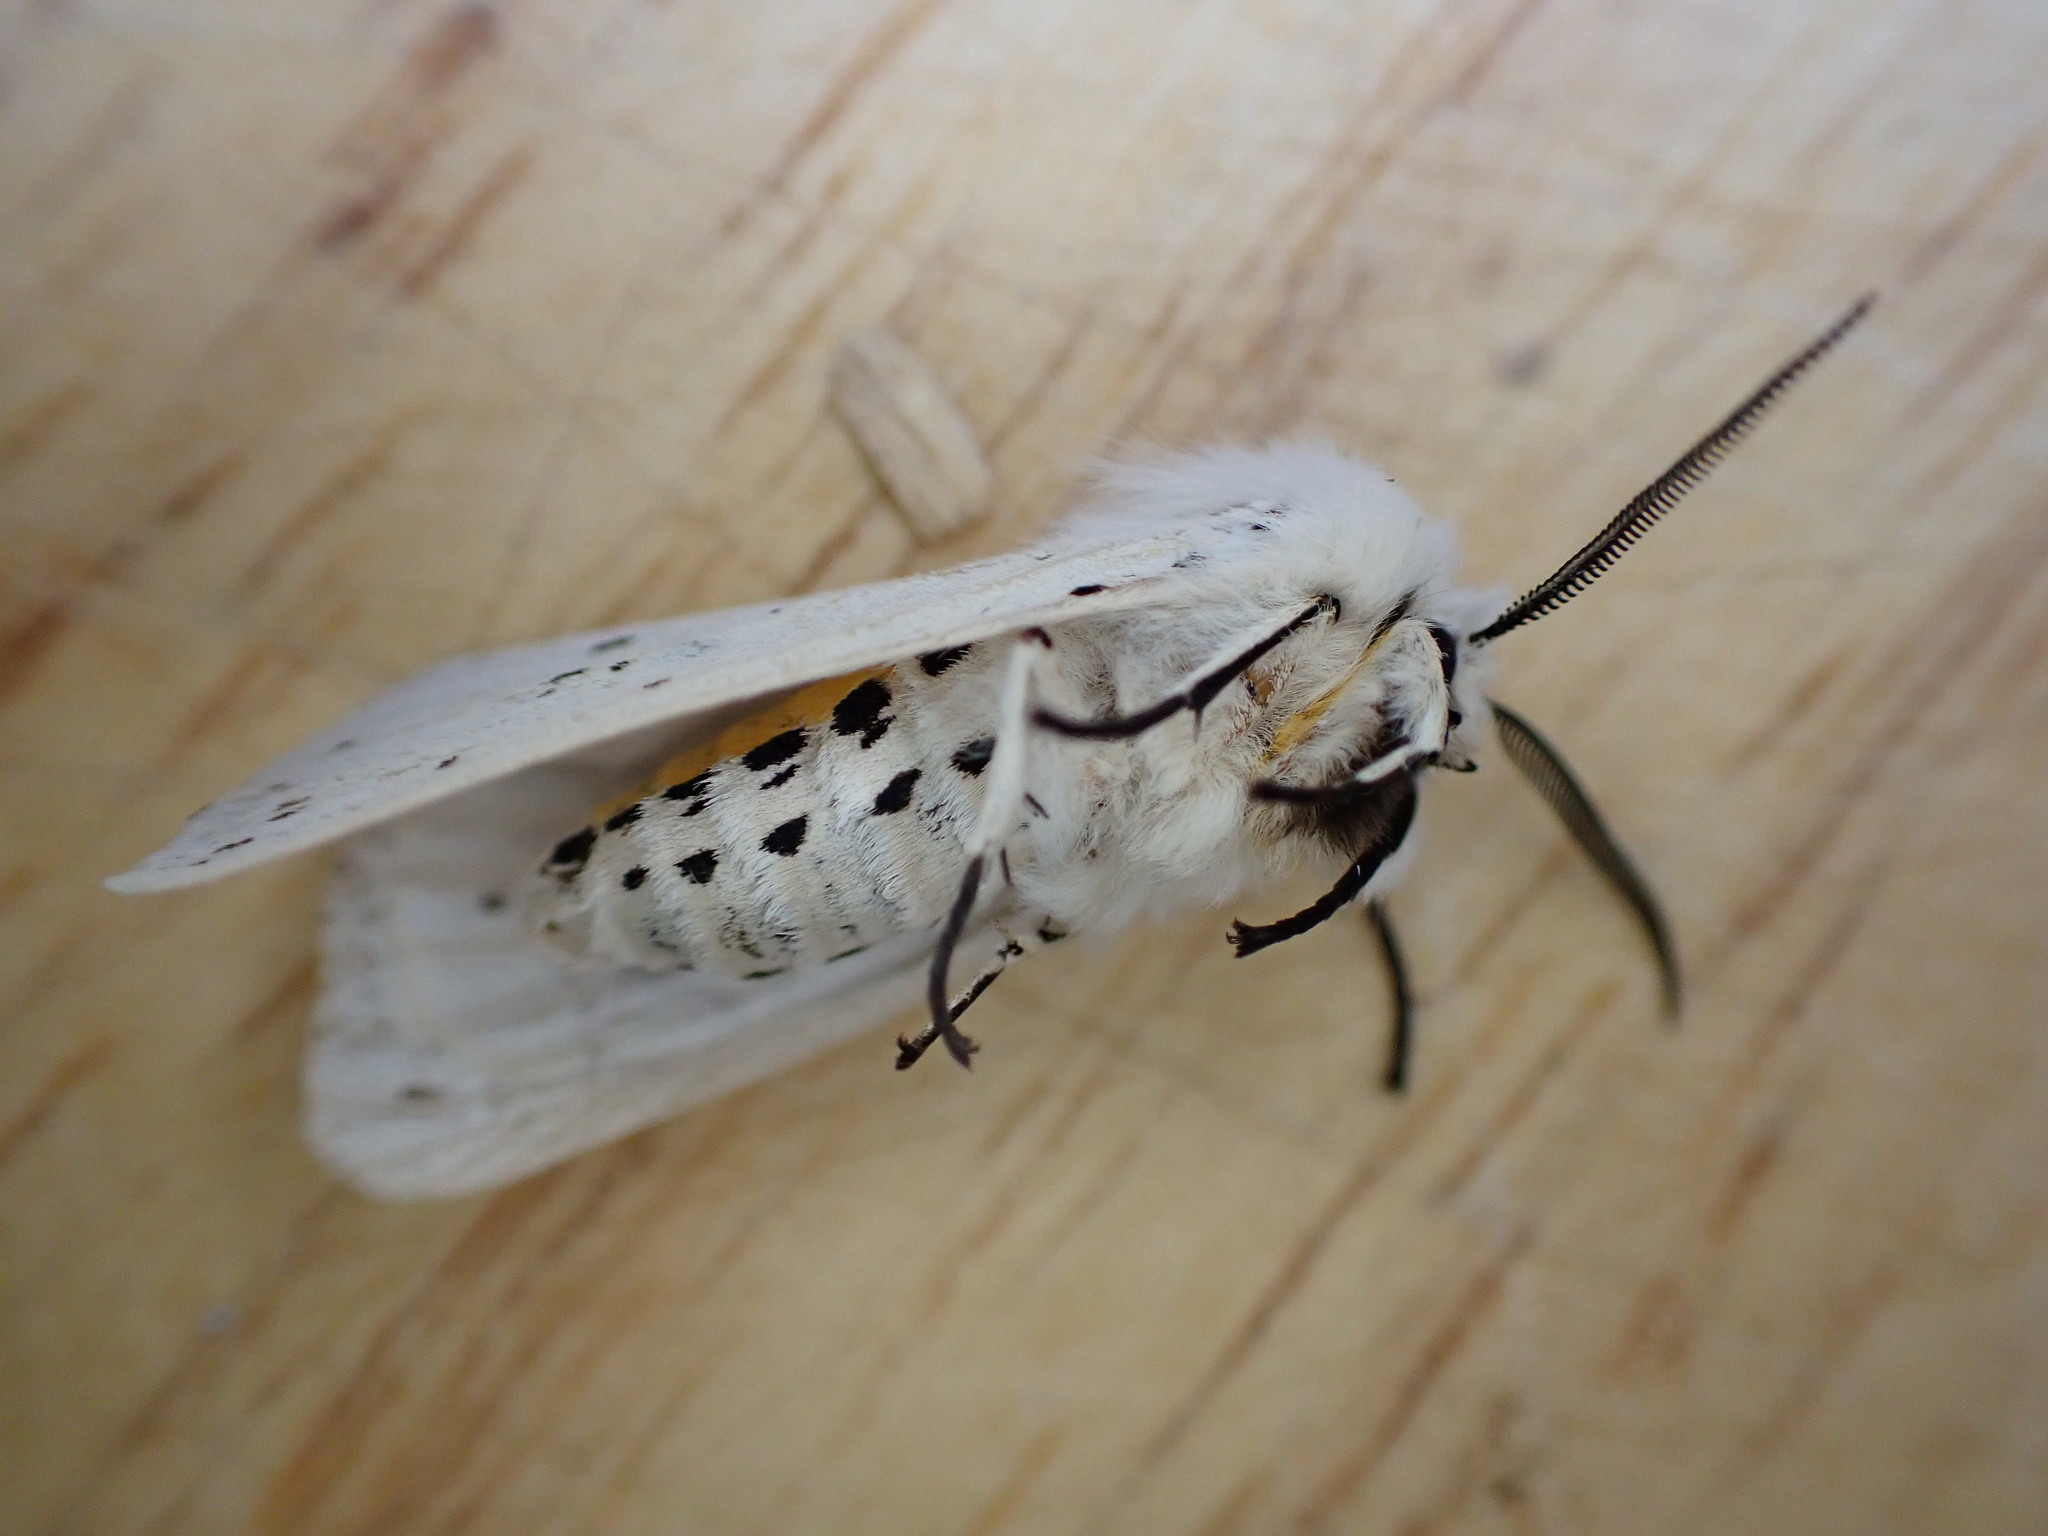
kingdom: Animalia
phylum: Arthropoda
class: Insecta
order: Lepidoptera
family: Erebidae
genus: Spilosoma
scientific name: Spilosoma lubricipeda
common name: White ermine
